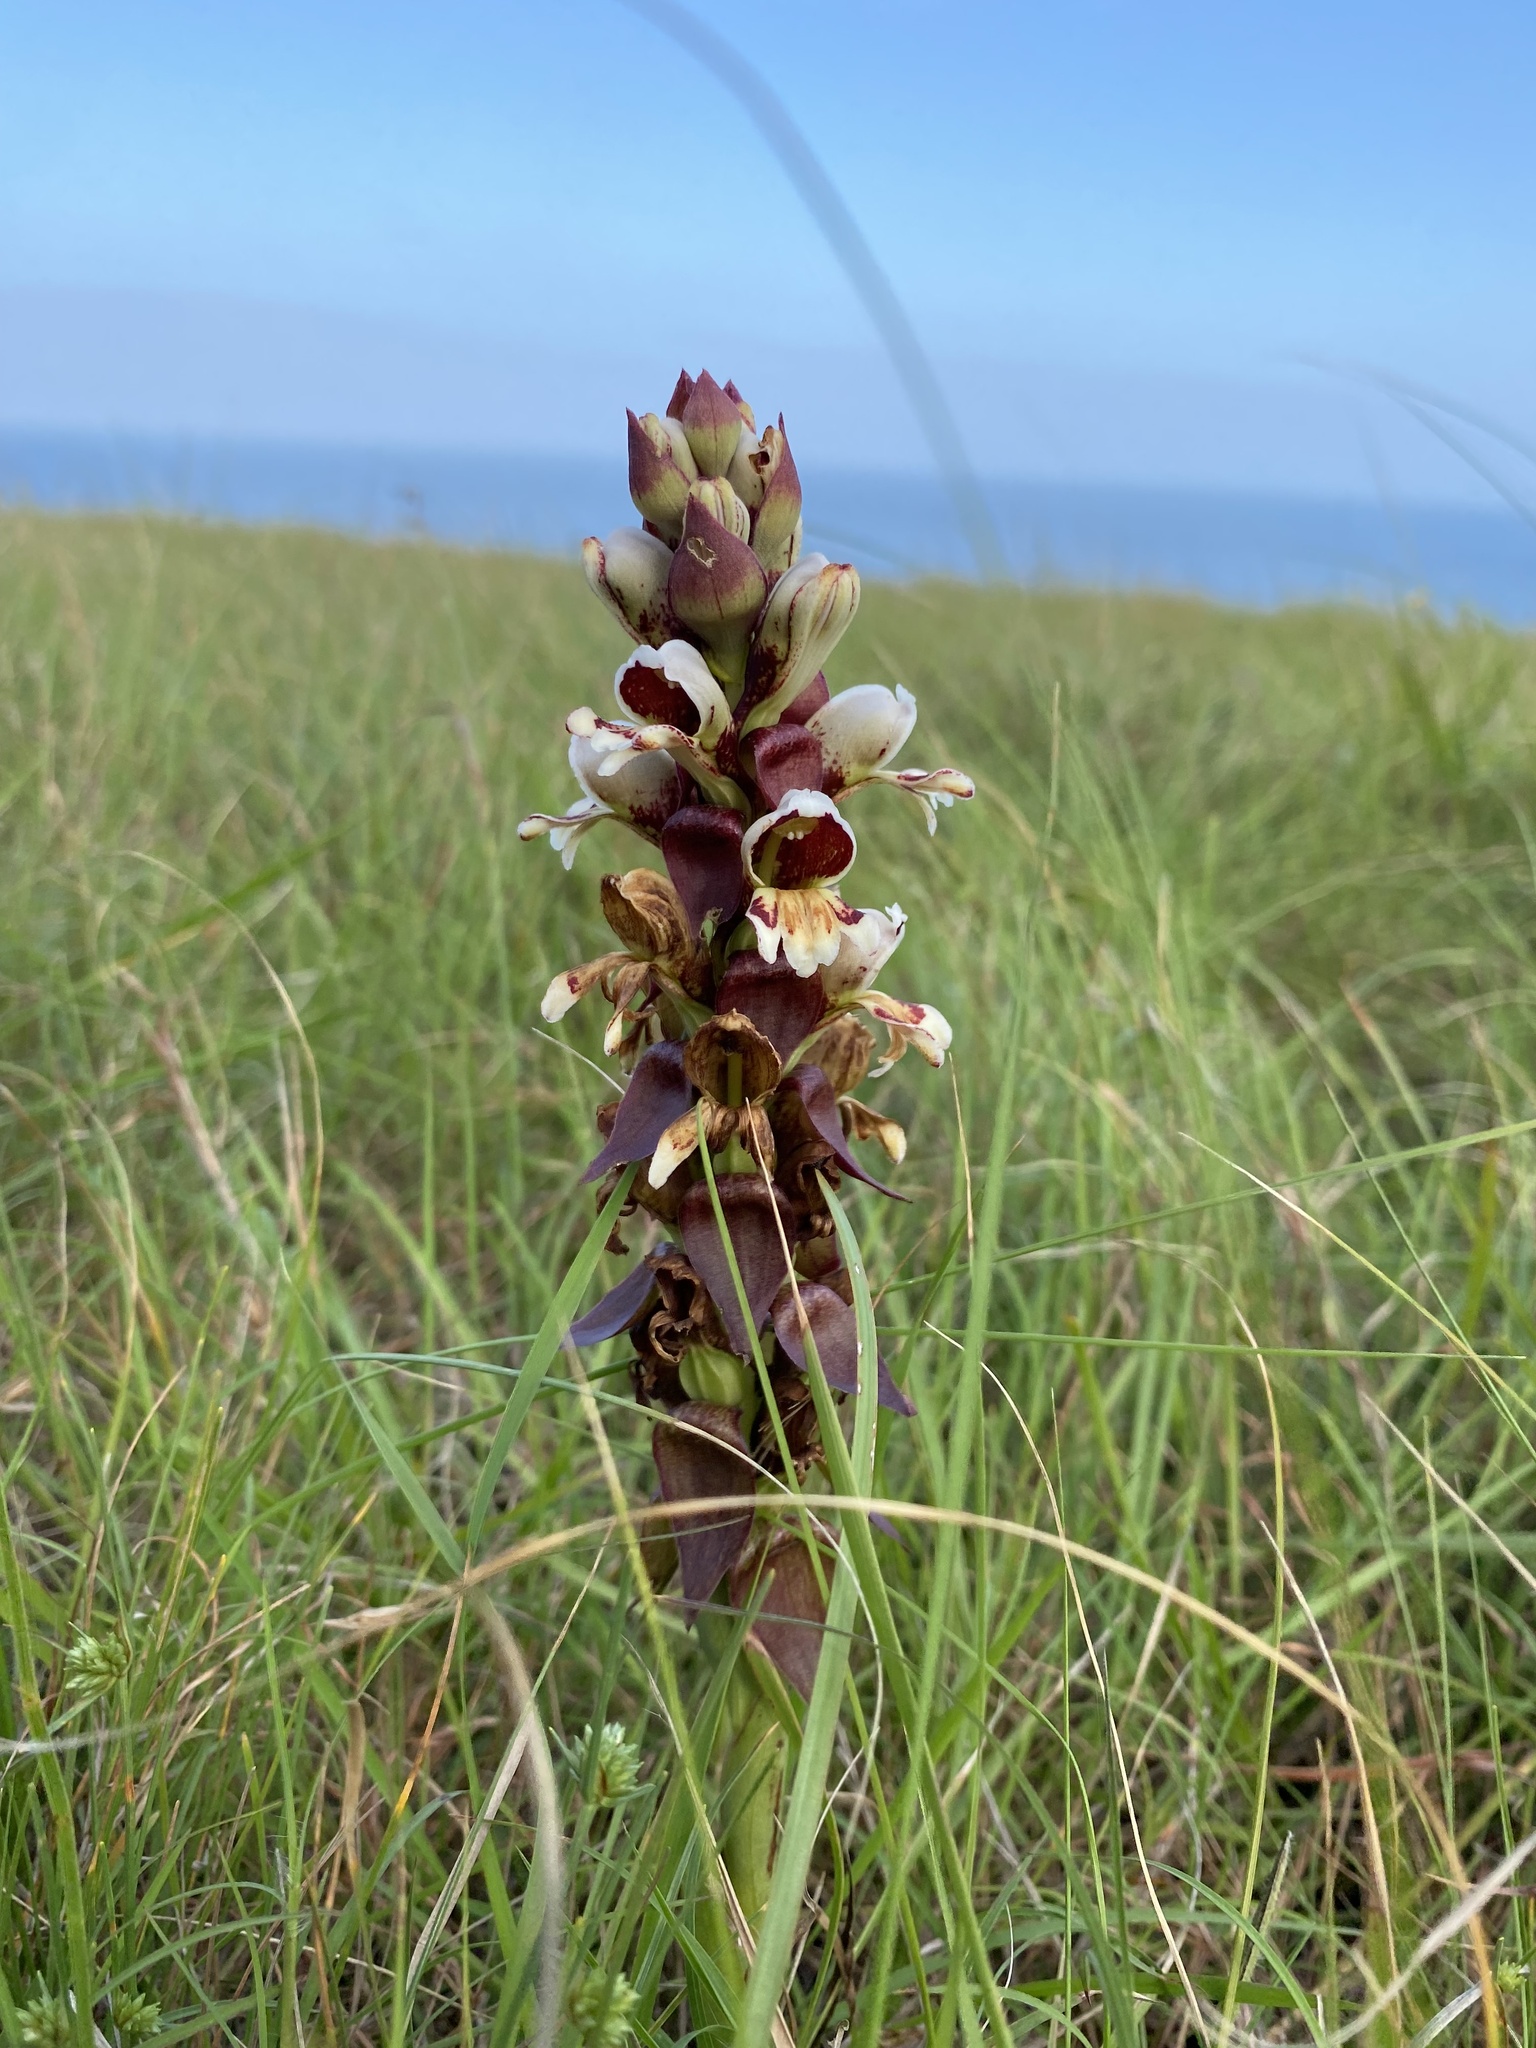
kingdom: Plantae
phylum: Tracheophyta
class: Liliopsida
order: Asparagales
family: Orchidaceae
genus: Satyrium
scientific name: Satyrium sphaerocarpum
